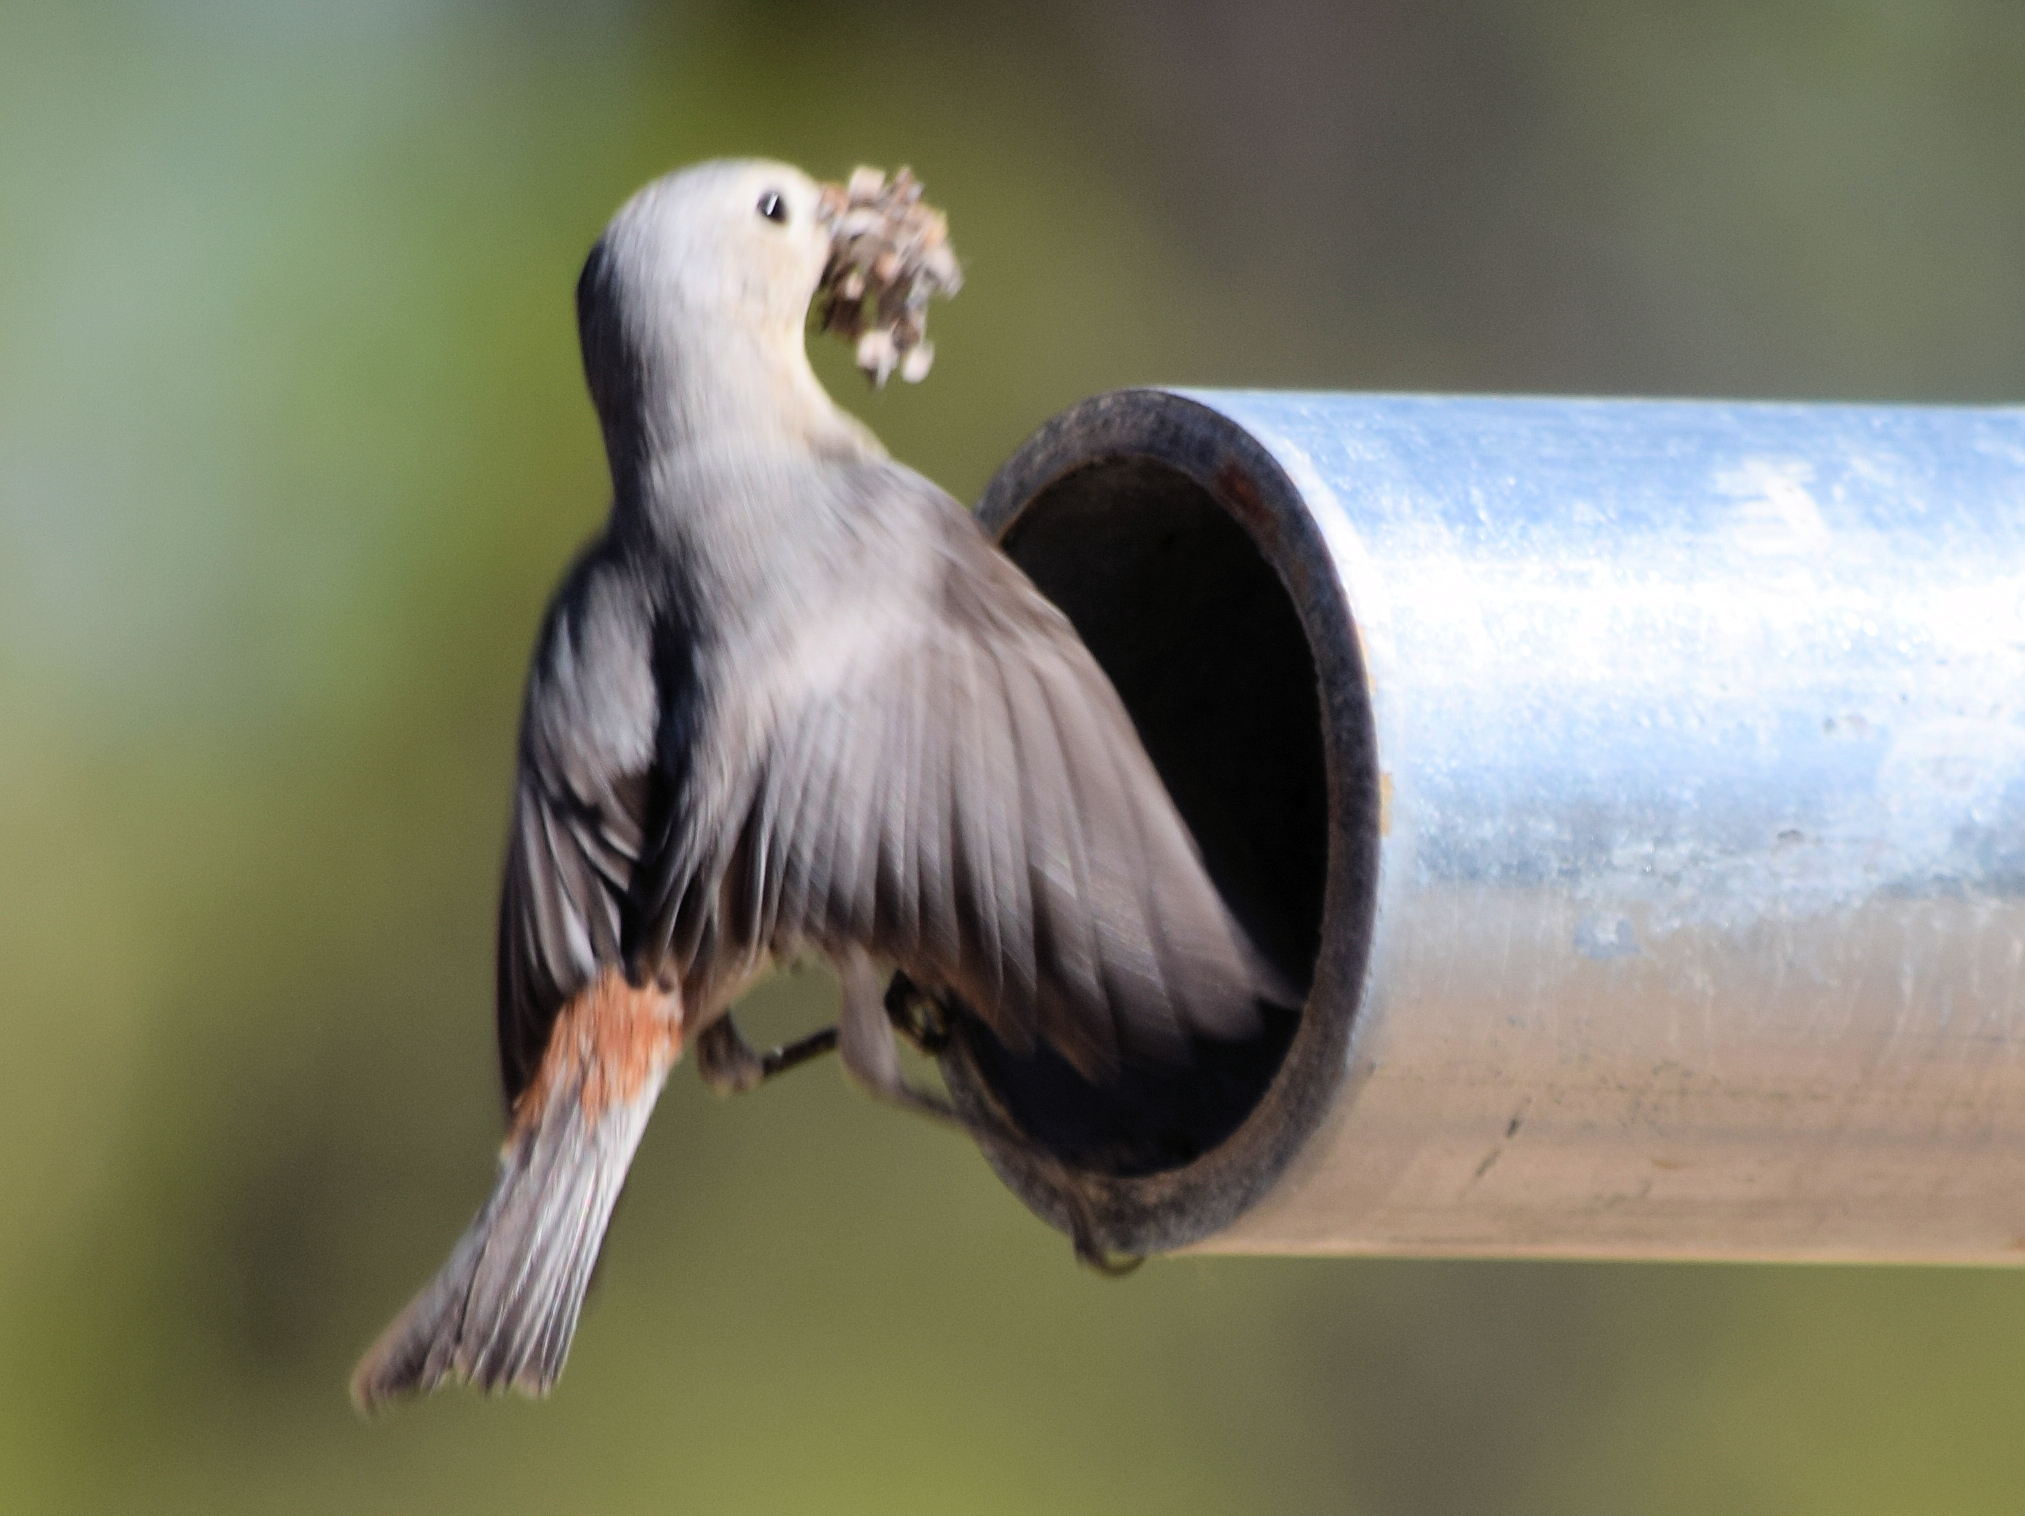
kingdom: Animalia
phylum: Chordata
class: Aves
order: Passeriformes
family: Parulidae
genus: Leiothlypis
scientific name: Leiothlypis luciae
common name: Lucy's warbler
